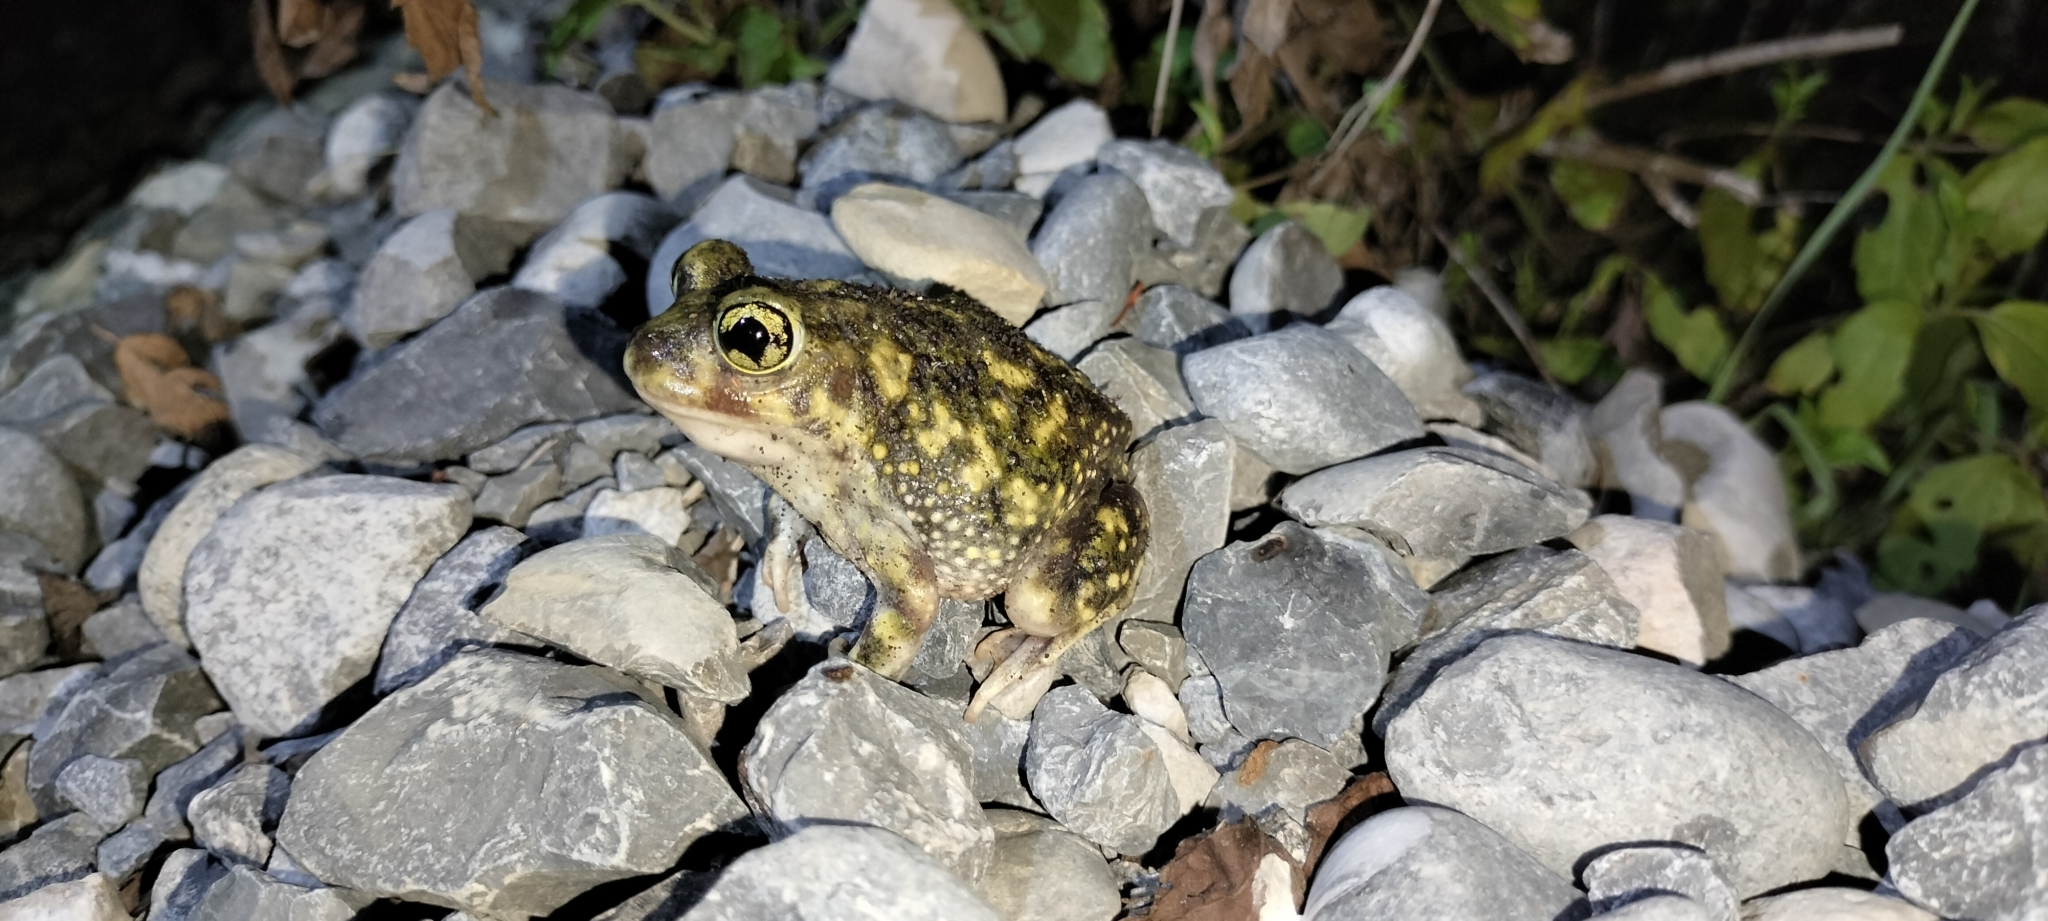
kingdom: Animalia
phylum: Chordata
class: Amphibia
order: Anura
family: Scaphiopodidae
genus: Scaphiopus
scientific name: Scaphiopus couchii
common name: Couch's spadefoot toad
